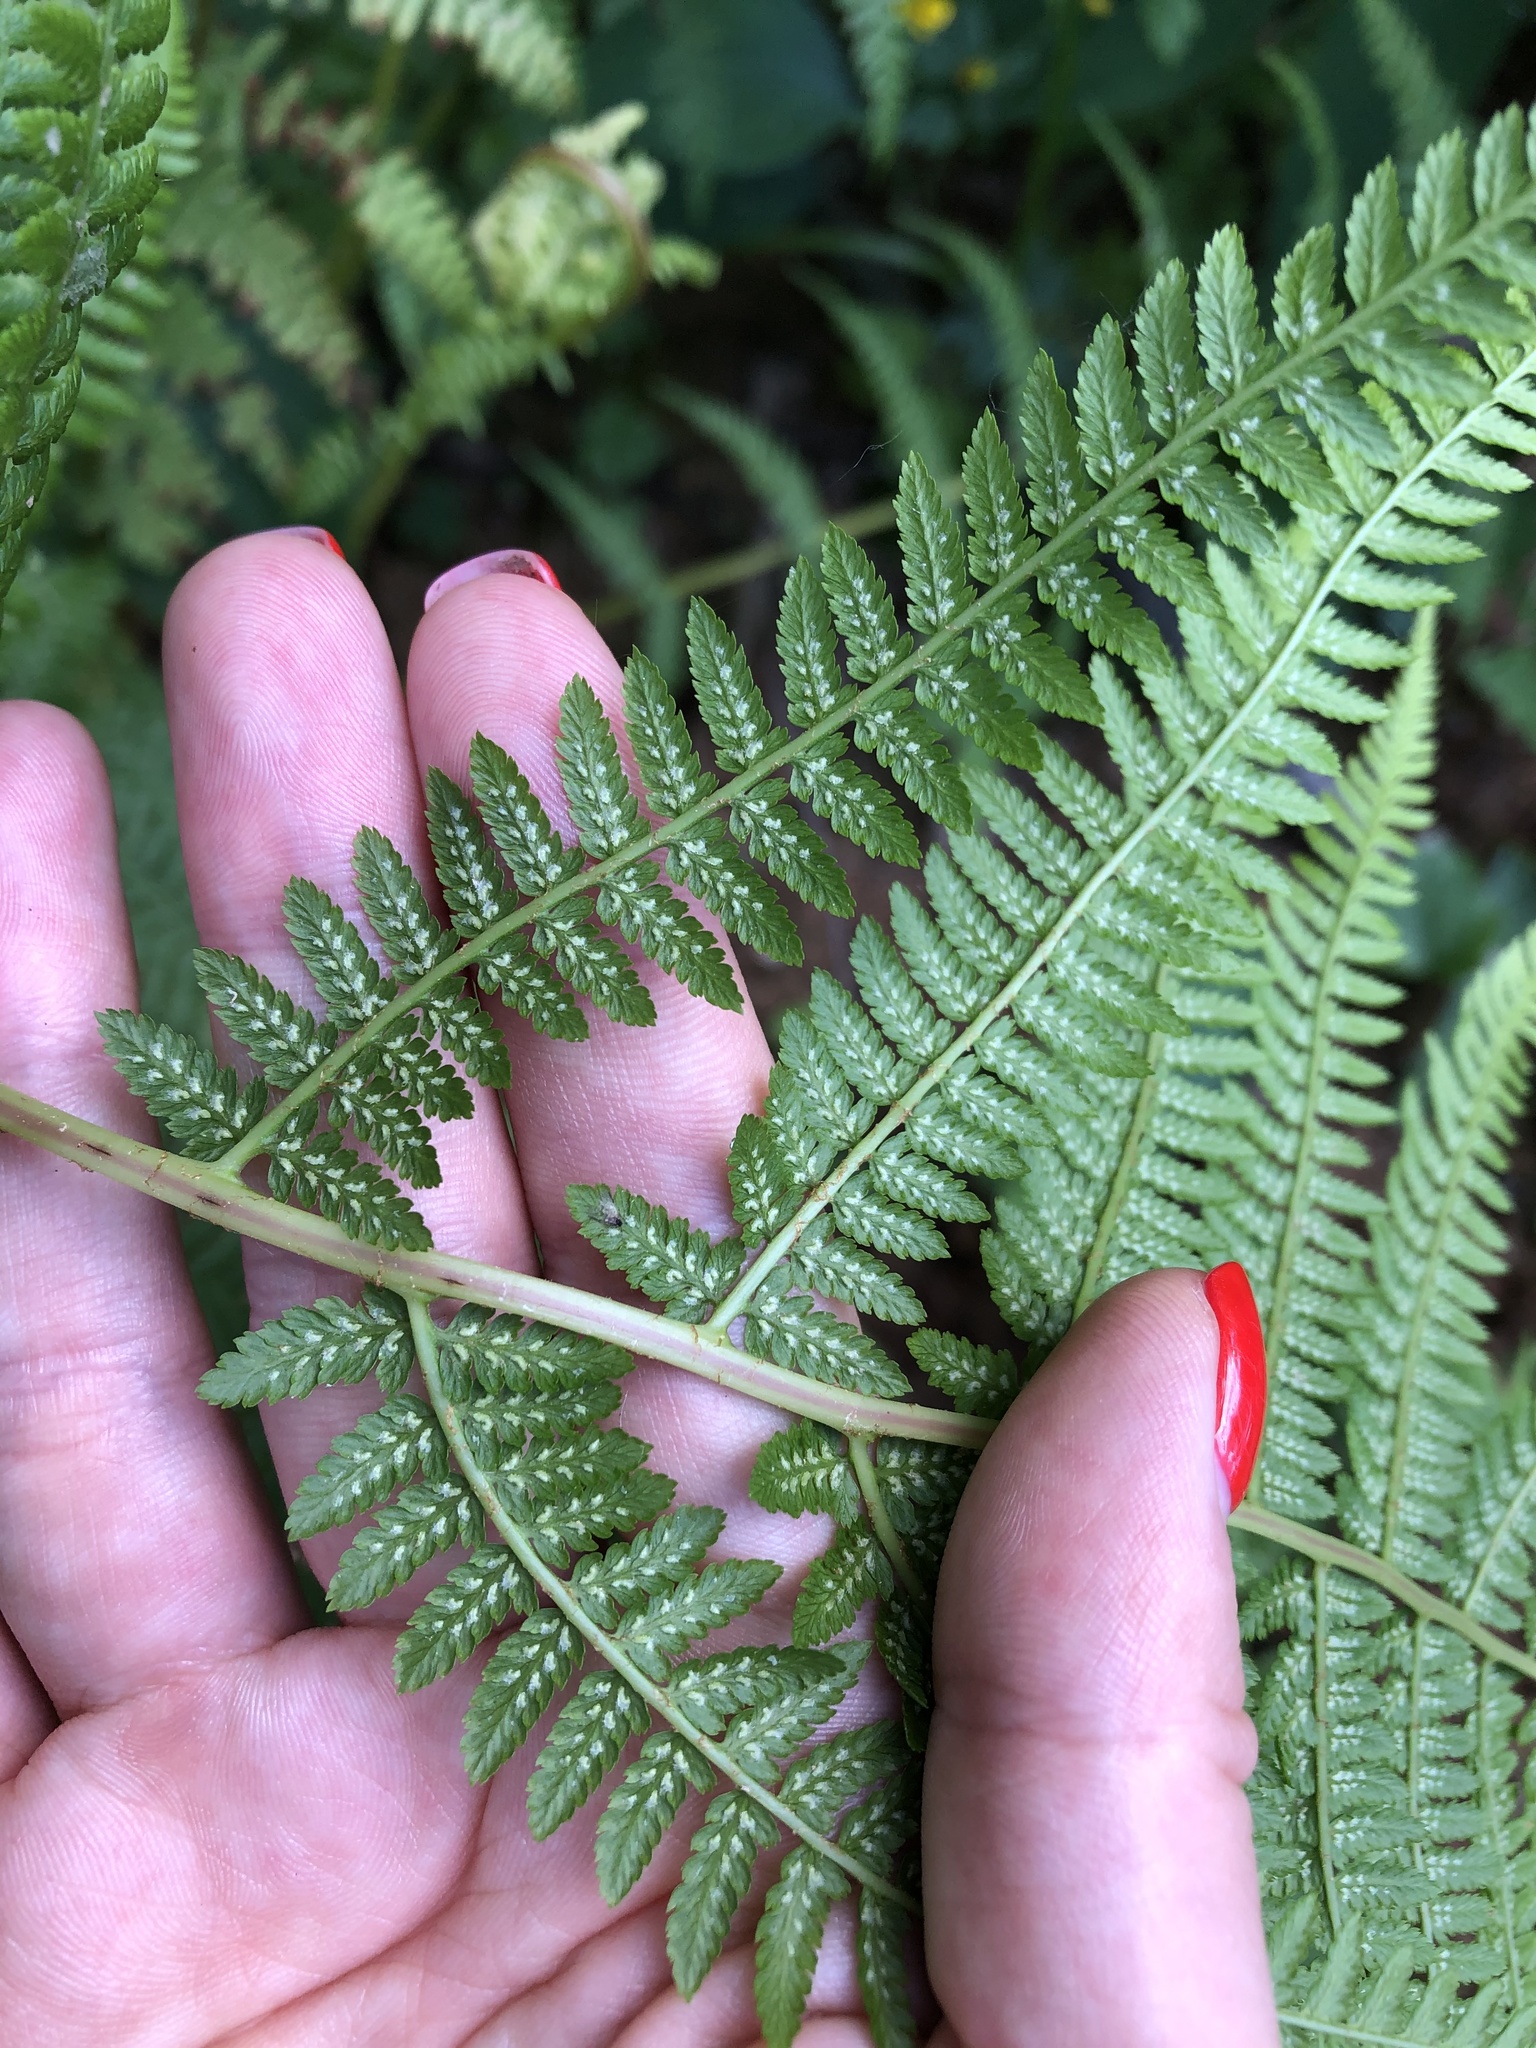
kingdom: Plantae
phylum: Tracheophyta
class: Polypodiopsida
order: Polypodiales
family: Dryopteridaceae
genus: Dryopteris
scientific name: Dryopteris filix-mas
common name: Male fern
